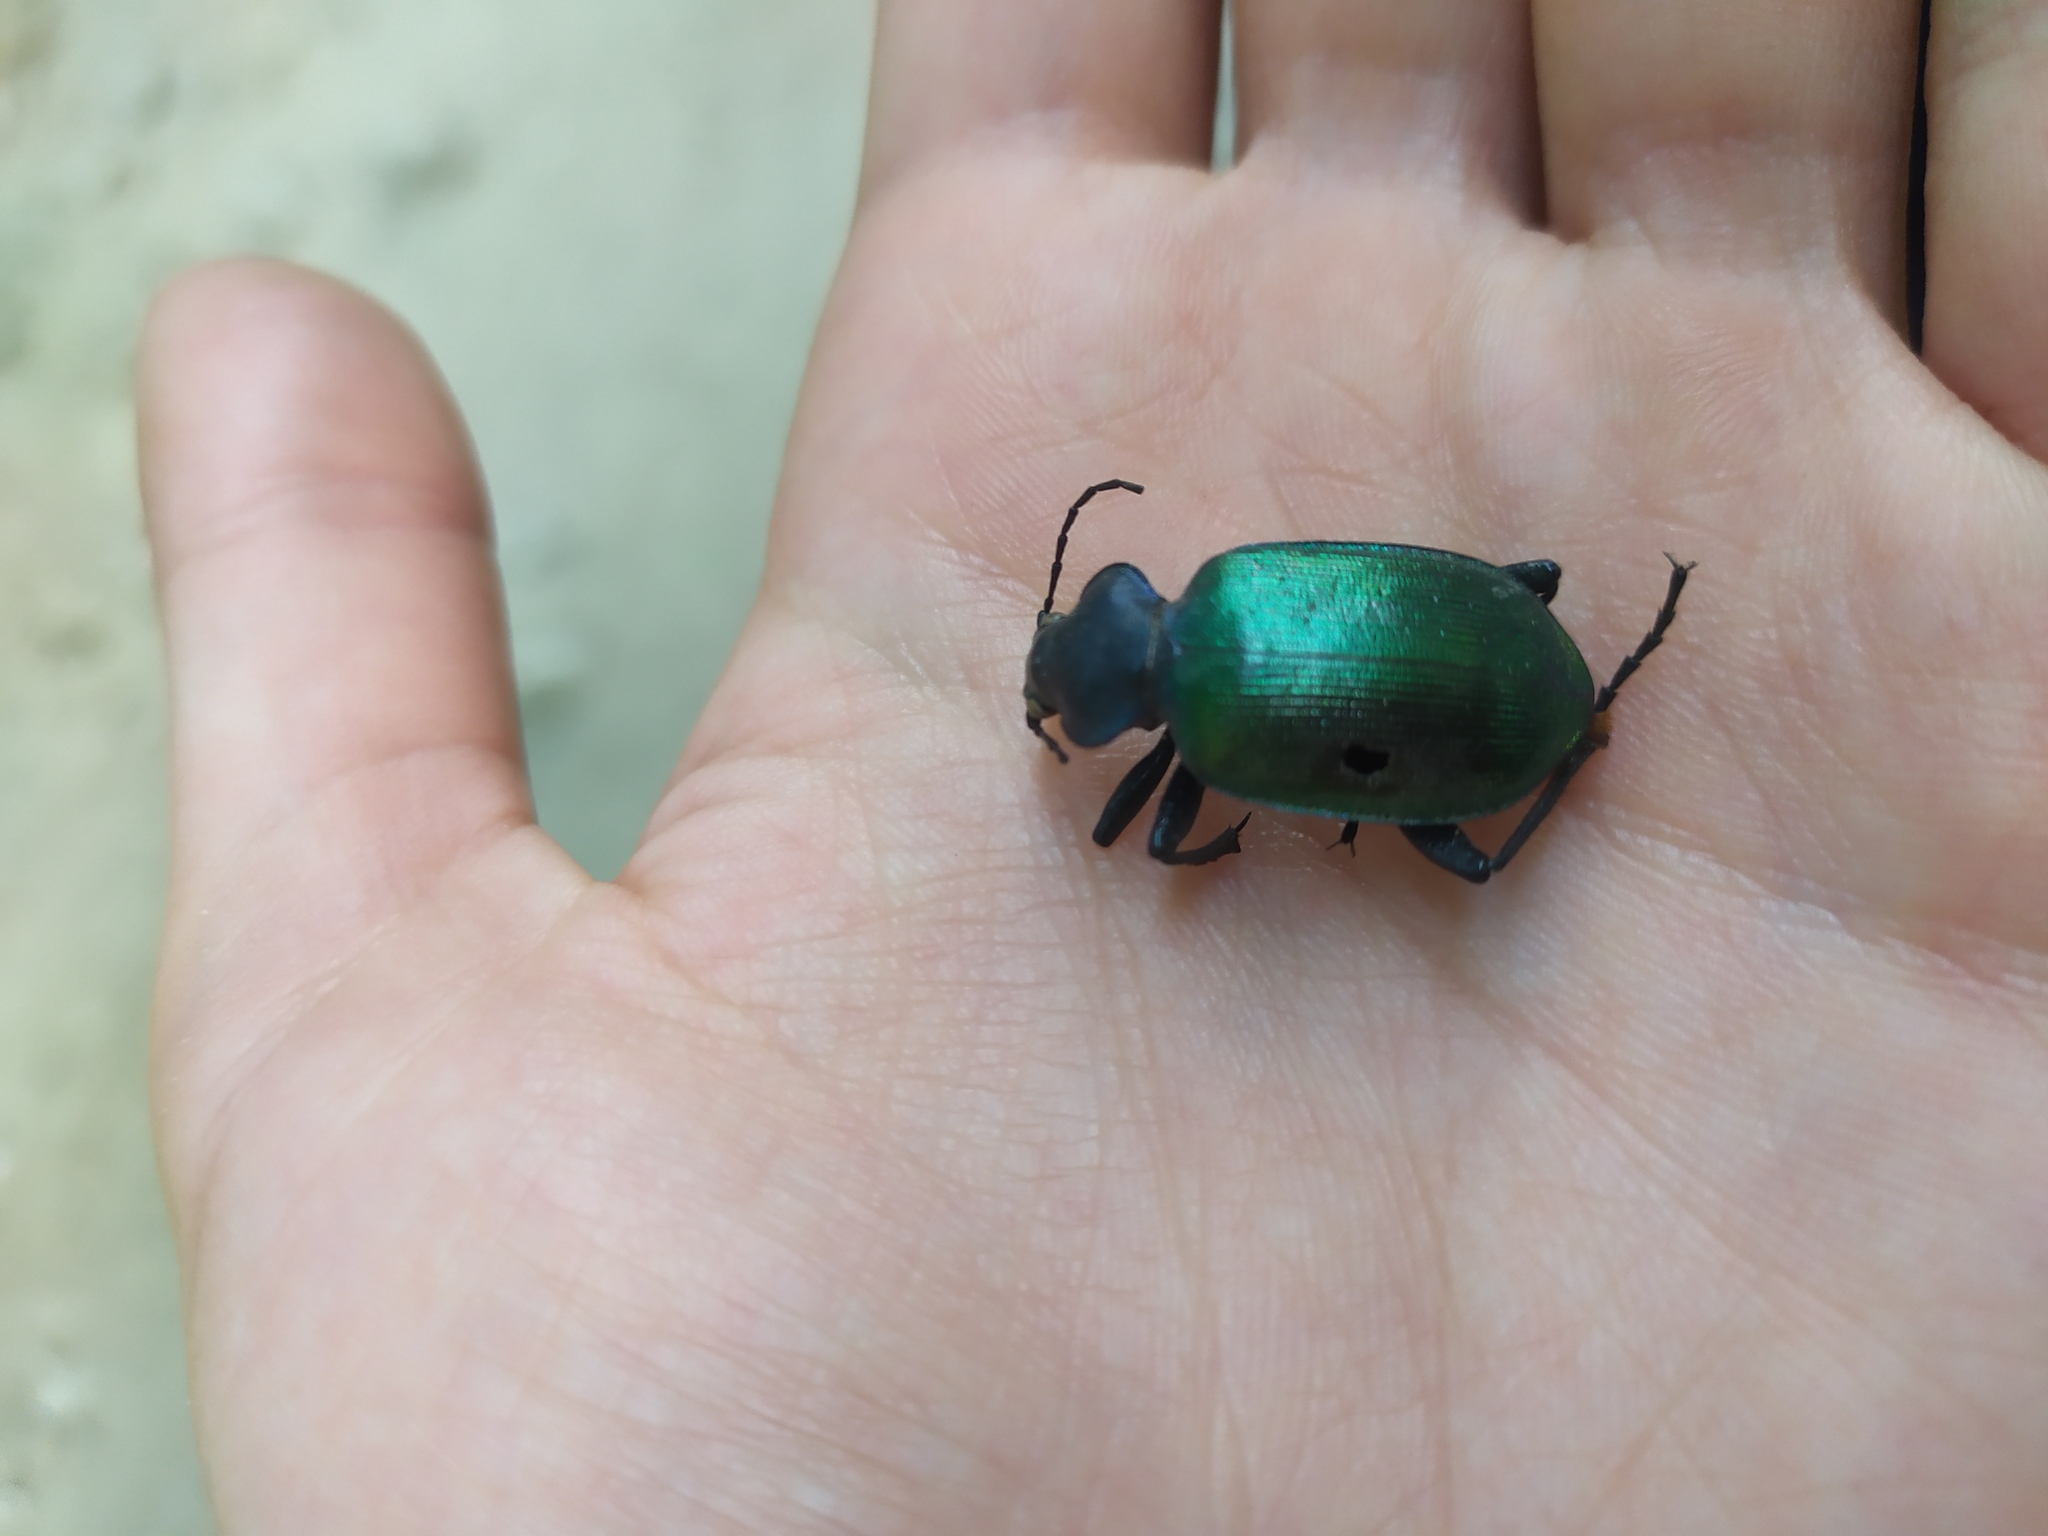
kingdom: Animalia
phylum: Arthropoda
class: Insecta
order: Coleoptera
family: Carabidae
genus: Calosoma
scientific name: Calosoma sycophanta
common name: Forest caterpillar hunter
